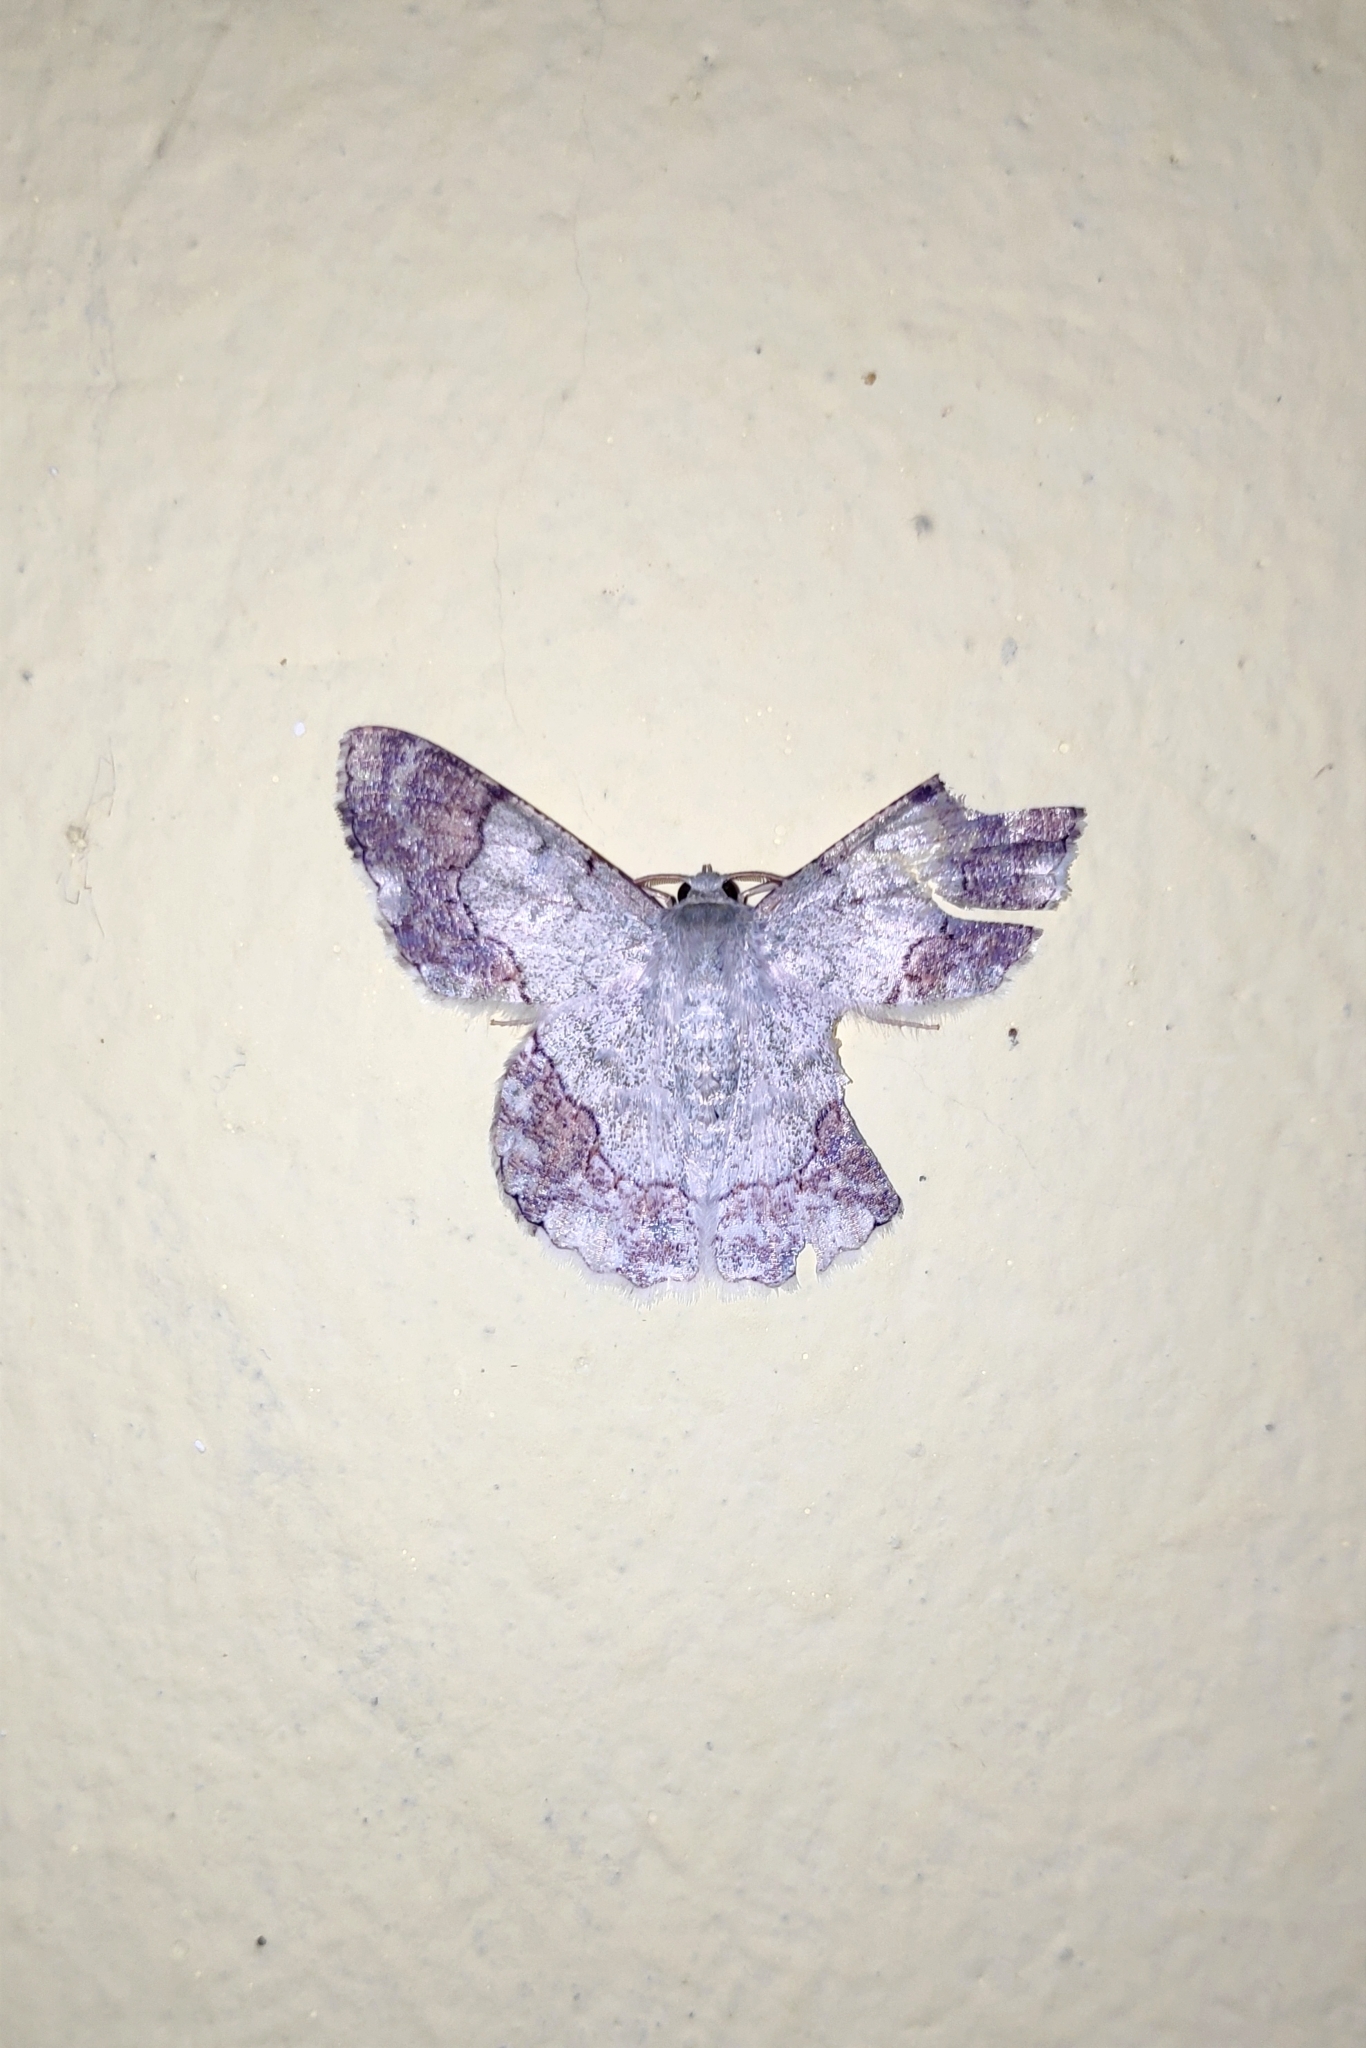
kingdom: Animalia
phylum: Arthropoda
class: Insecta
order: Lepidoptera
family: Geometridae
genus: Pingasa
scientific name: Pingasa ruginaria
